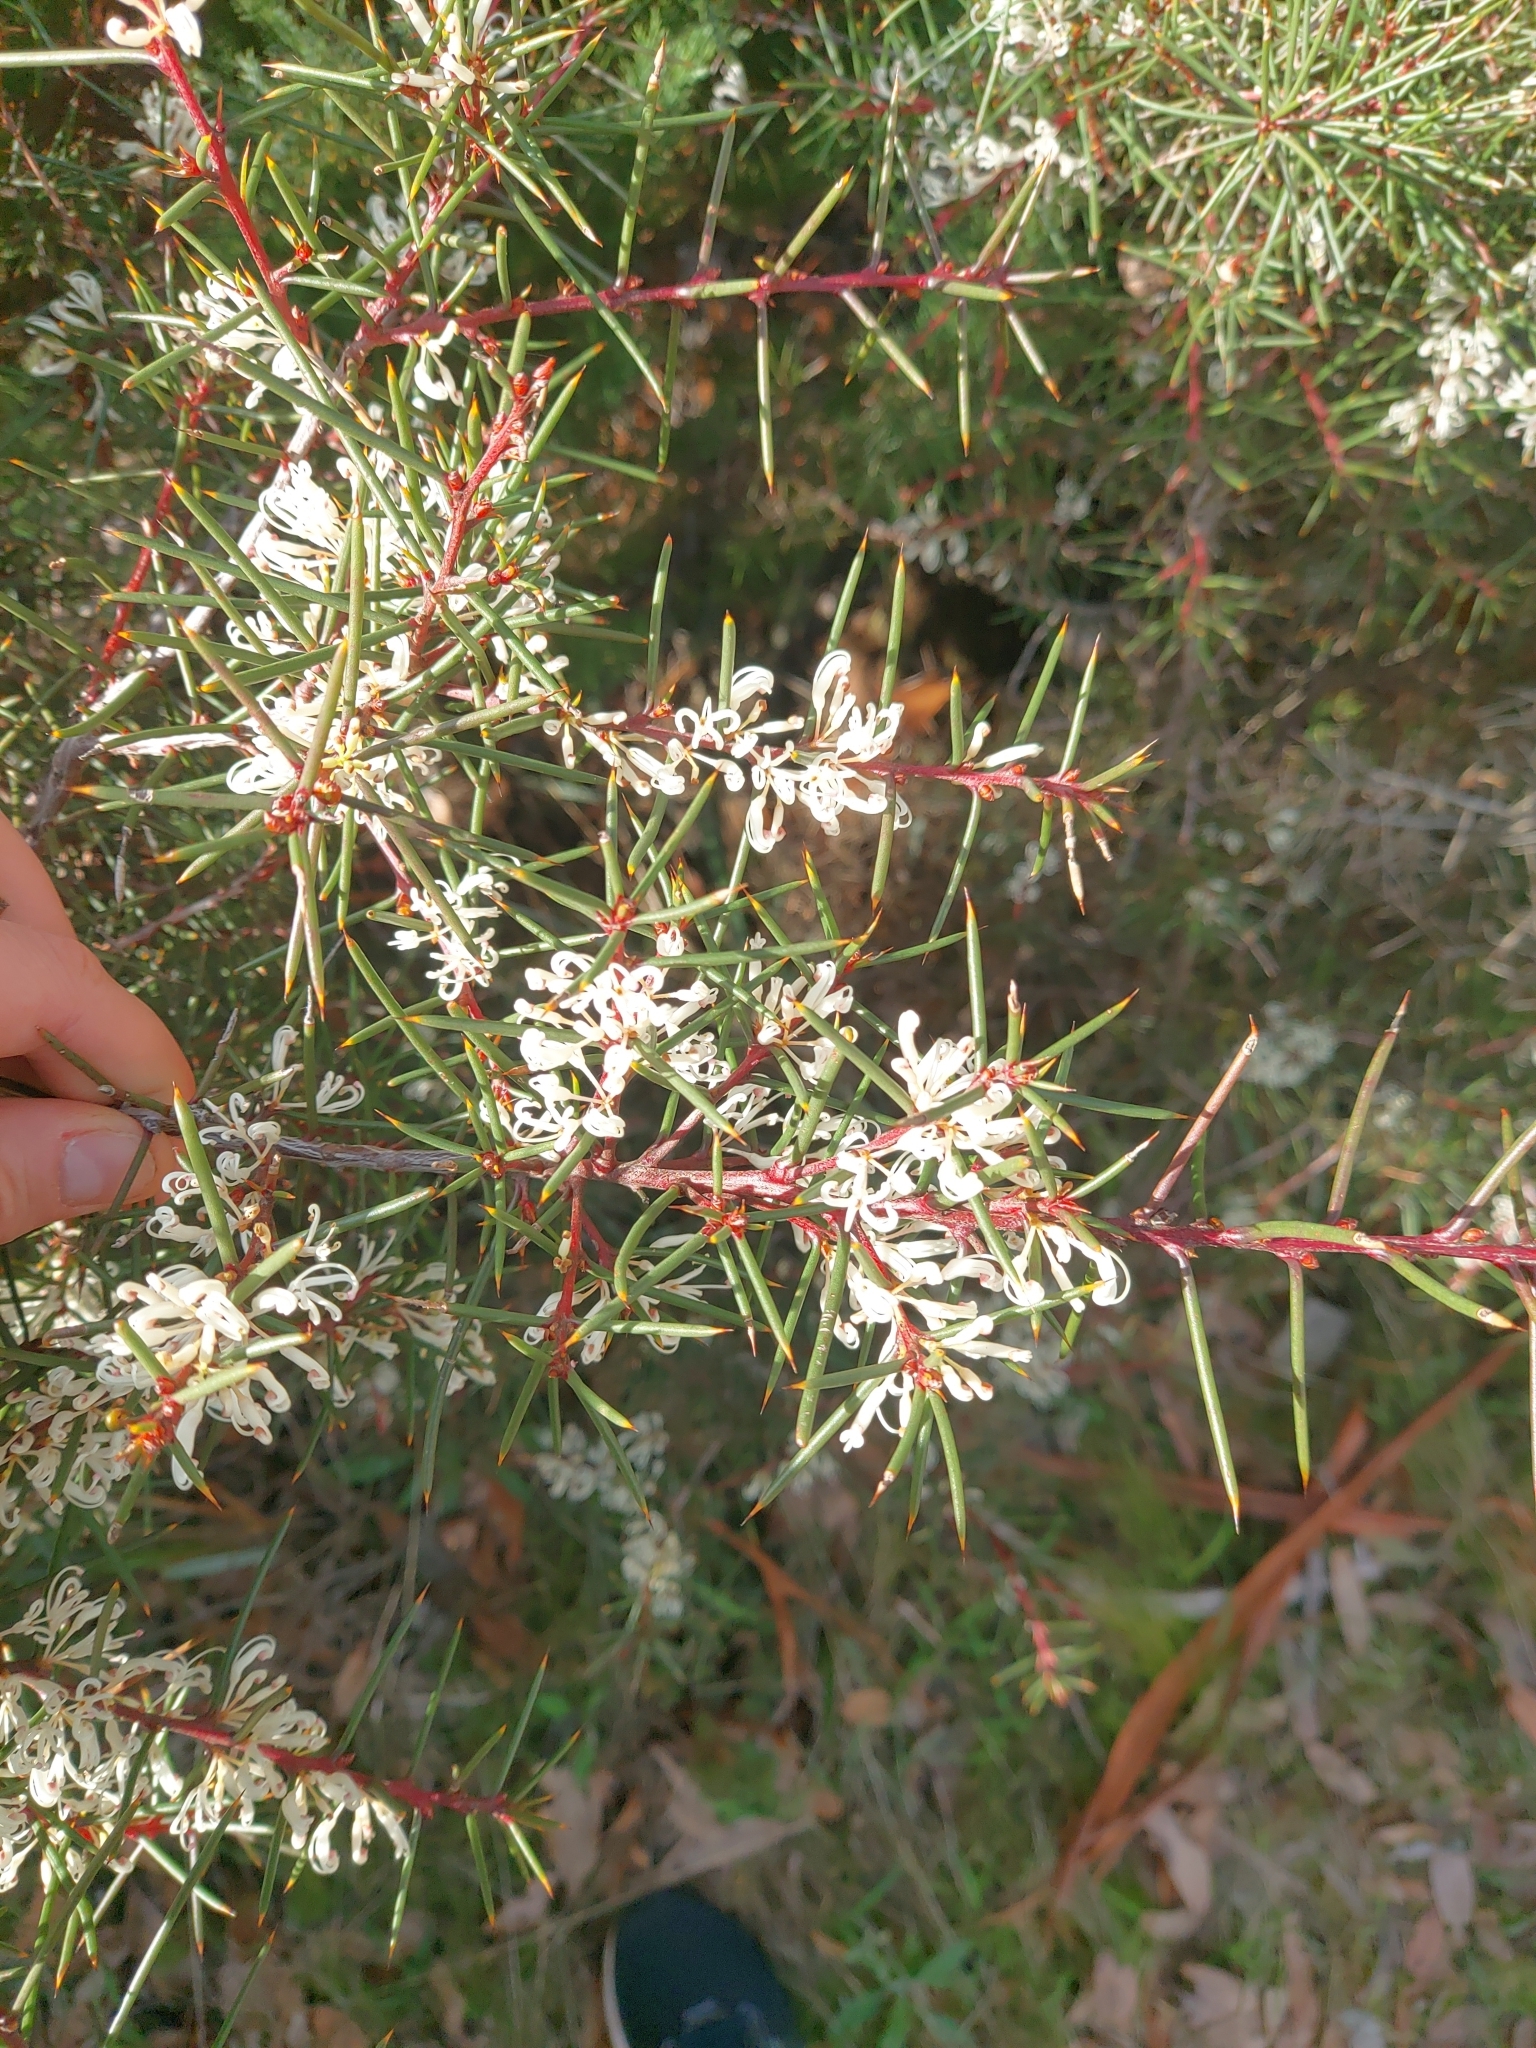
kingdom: Plantae
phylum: Tracheophyta
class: Magnoliopsida
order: Proteales
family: Proteaceae
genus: Hakea
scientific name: Hakea decurrens
